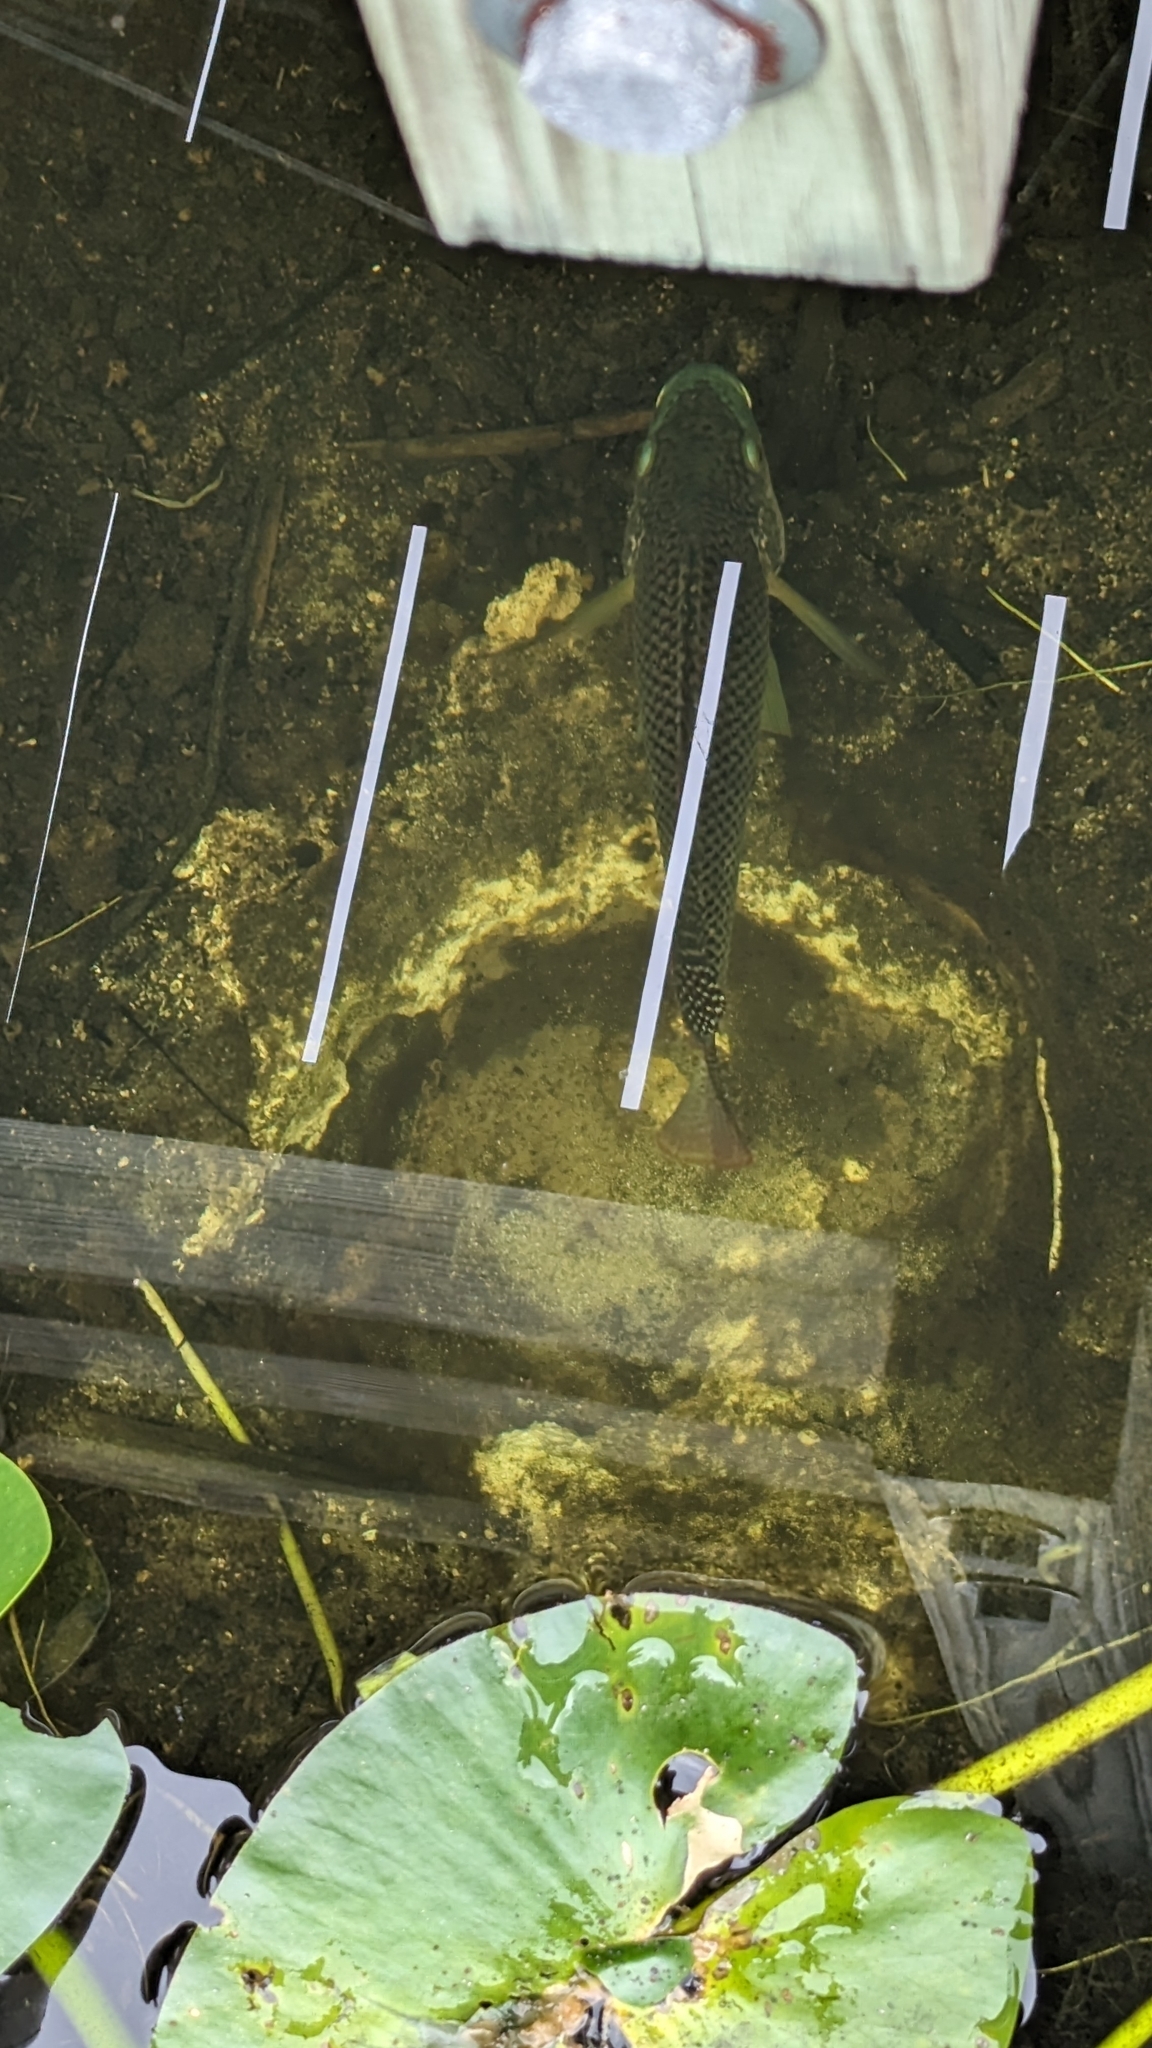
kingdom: Animalia
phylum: Chordata
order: Perciformes
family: Cichlidae
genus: Oreochromis
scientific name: Oreochromis aureus
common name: Blue tilapia
